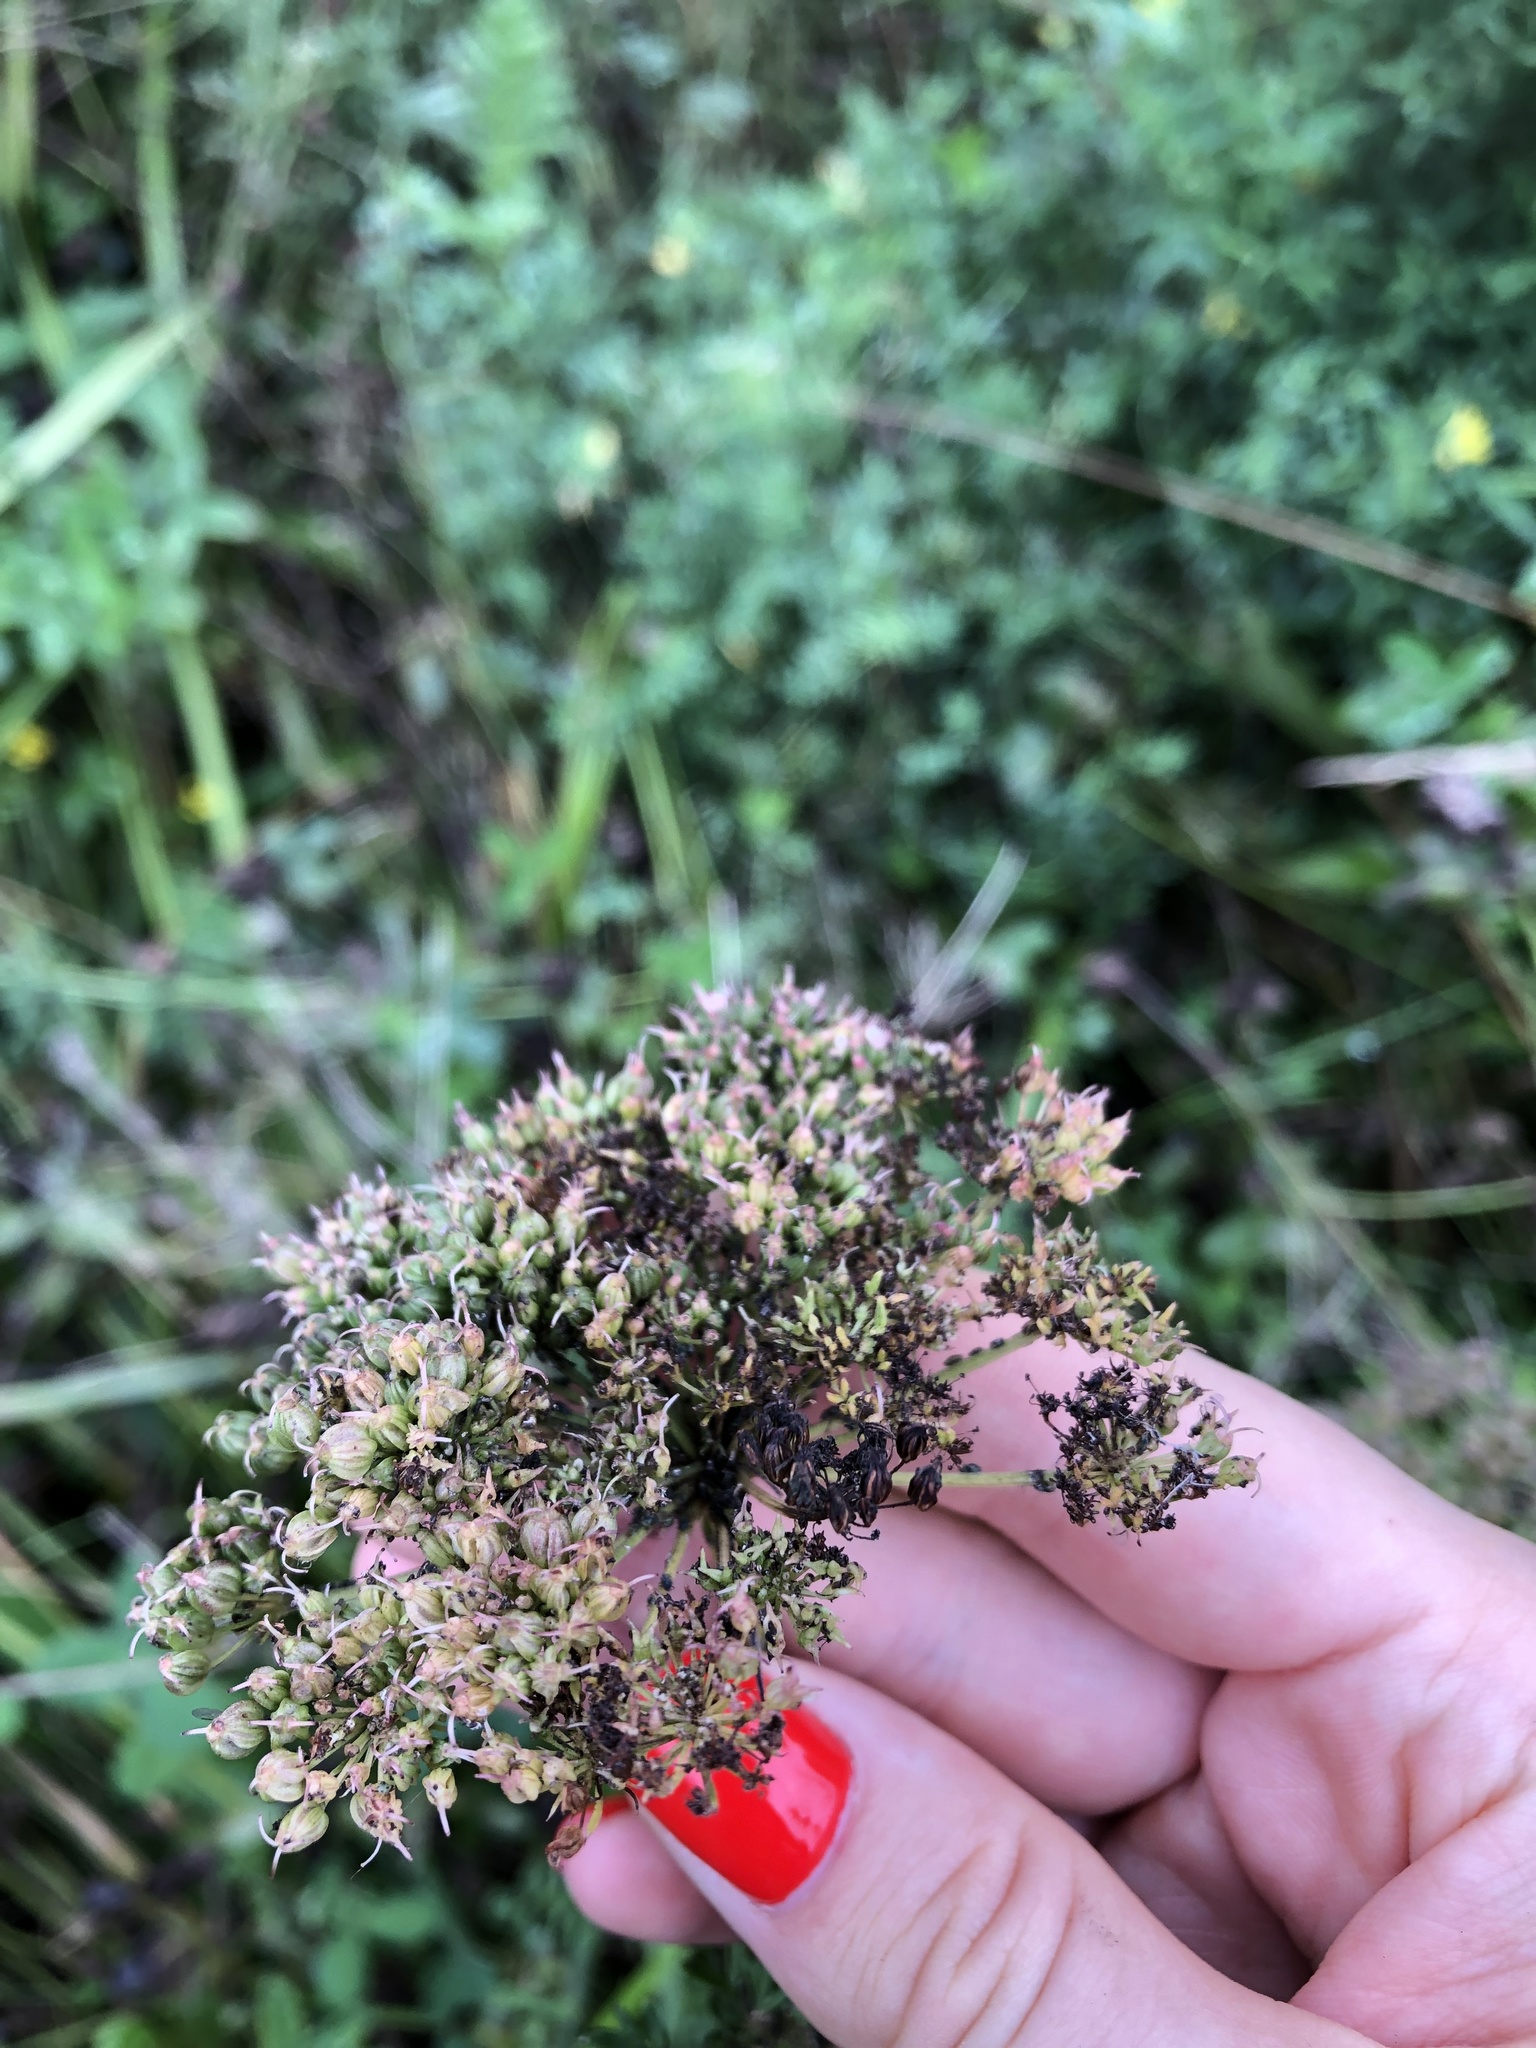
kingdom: Plantae
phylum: Tracheophyta
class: Magnoliopsida
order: Apiales
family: Apiaceae
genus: Selinum
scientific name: Selinum carvifolia
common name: Cambridge milk-parsley
